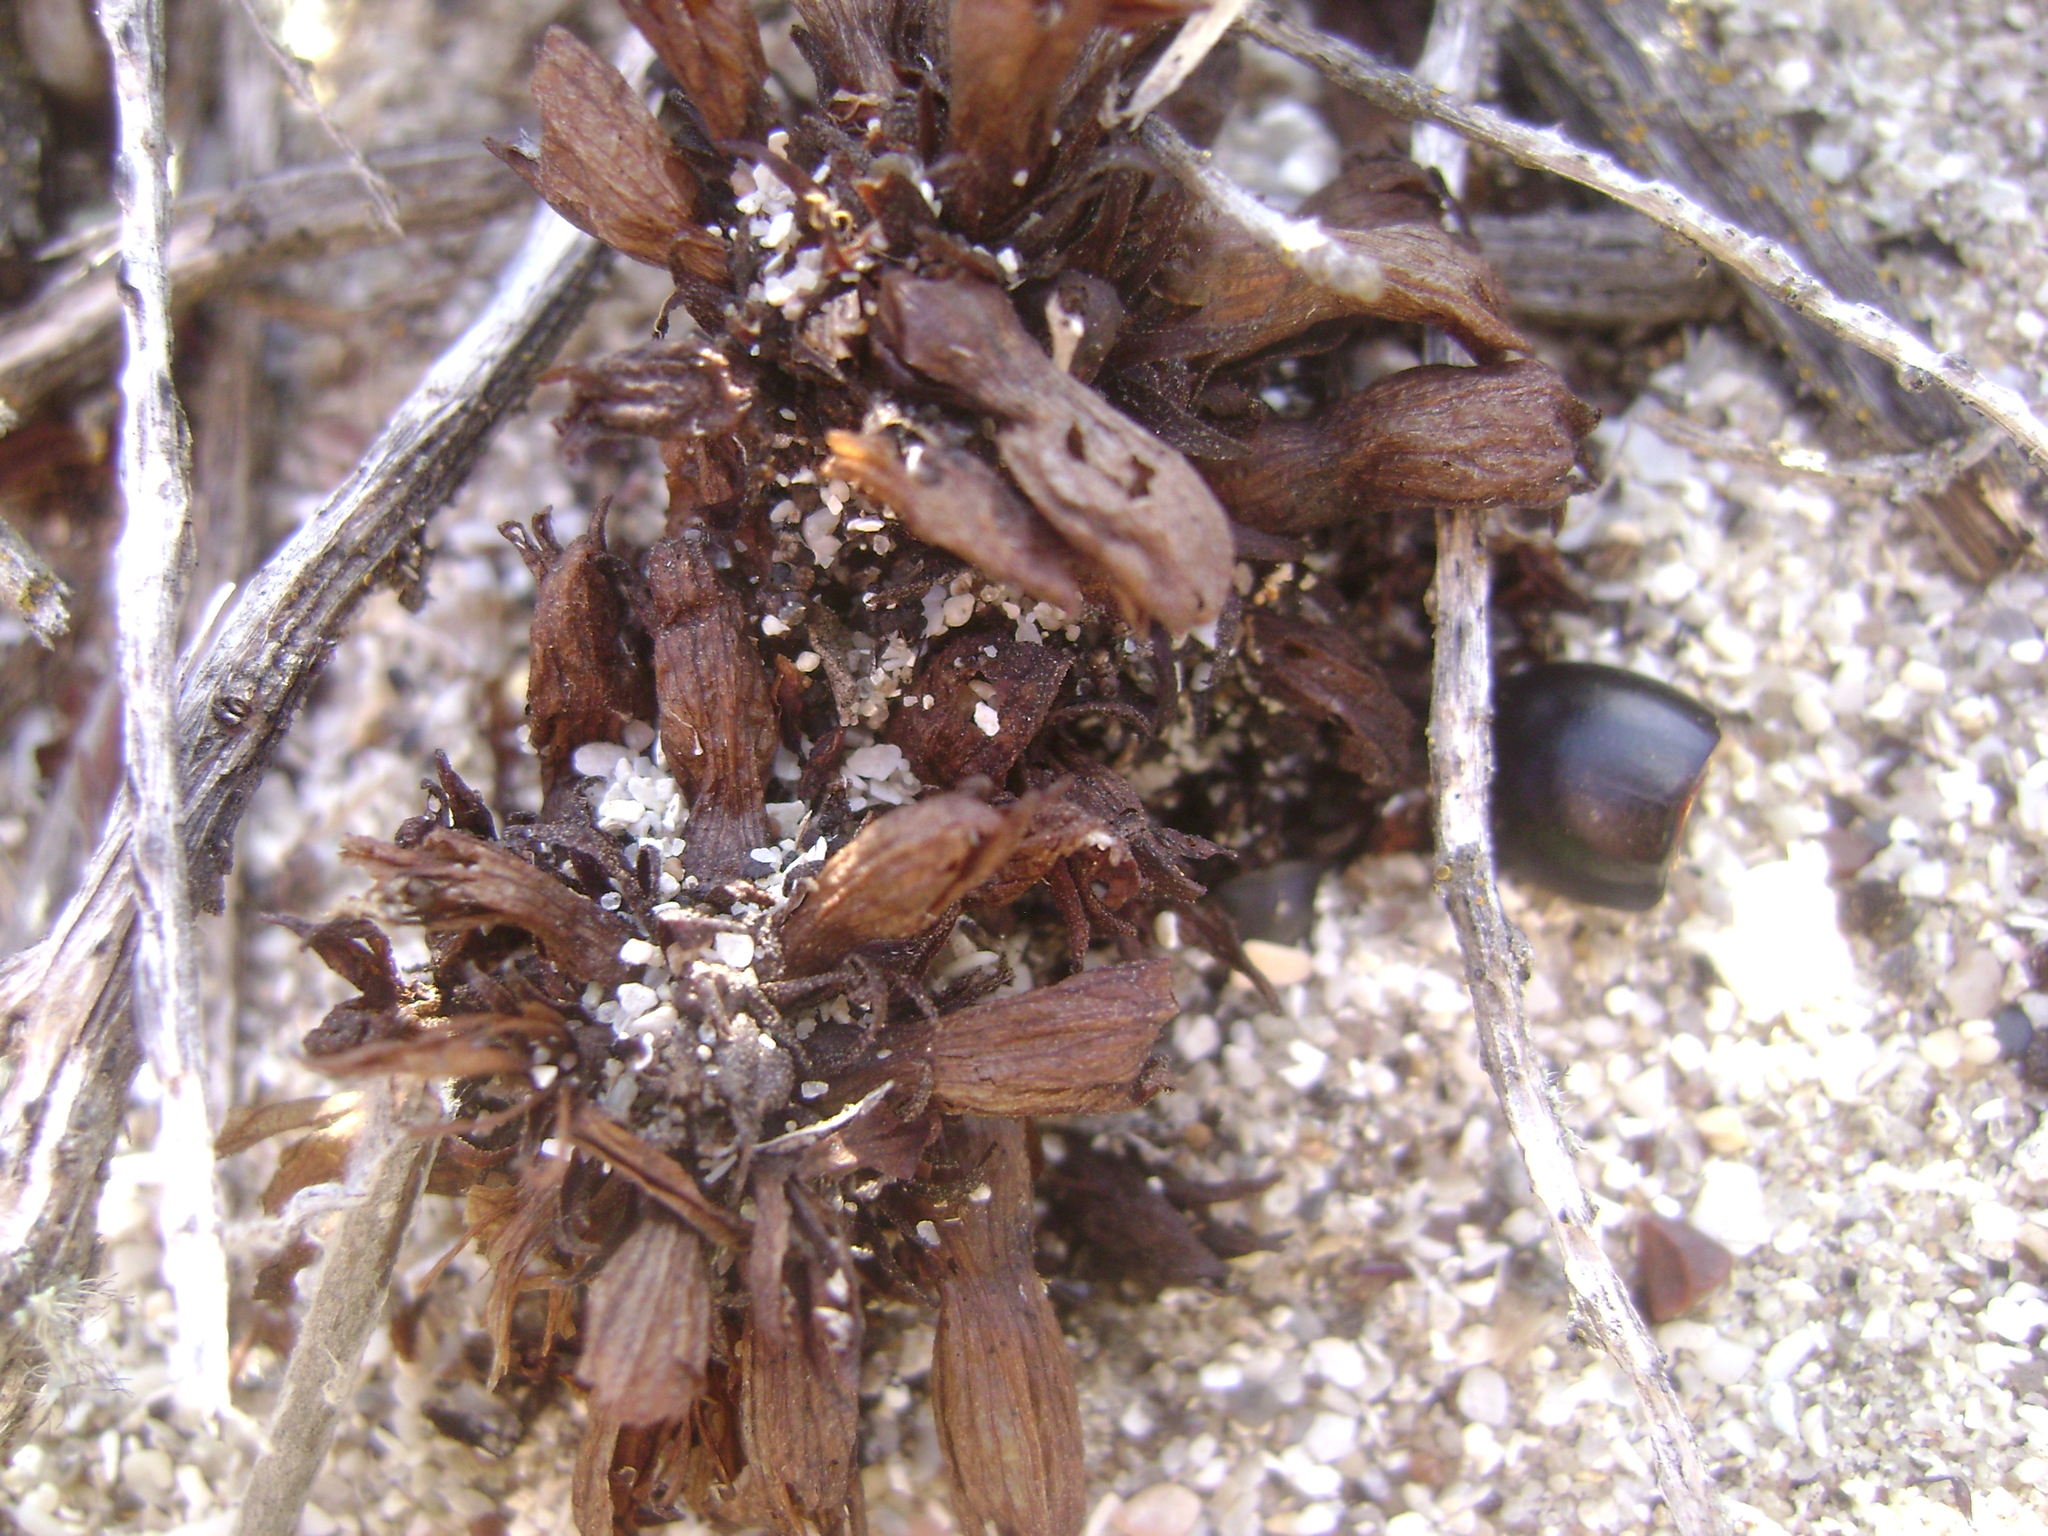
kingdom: Plantae
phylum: Tracheophyta
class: Magnoliopsida
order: Lamiales
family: Orobanchaceae
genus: Aphyllon
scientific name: Aphyllon parishii
